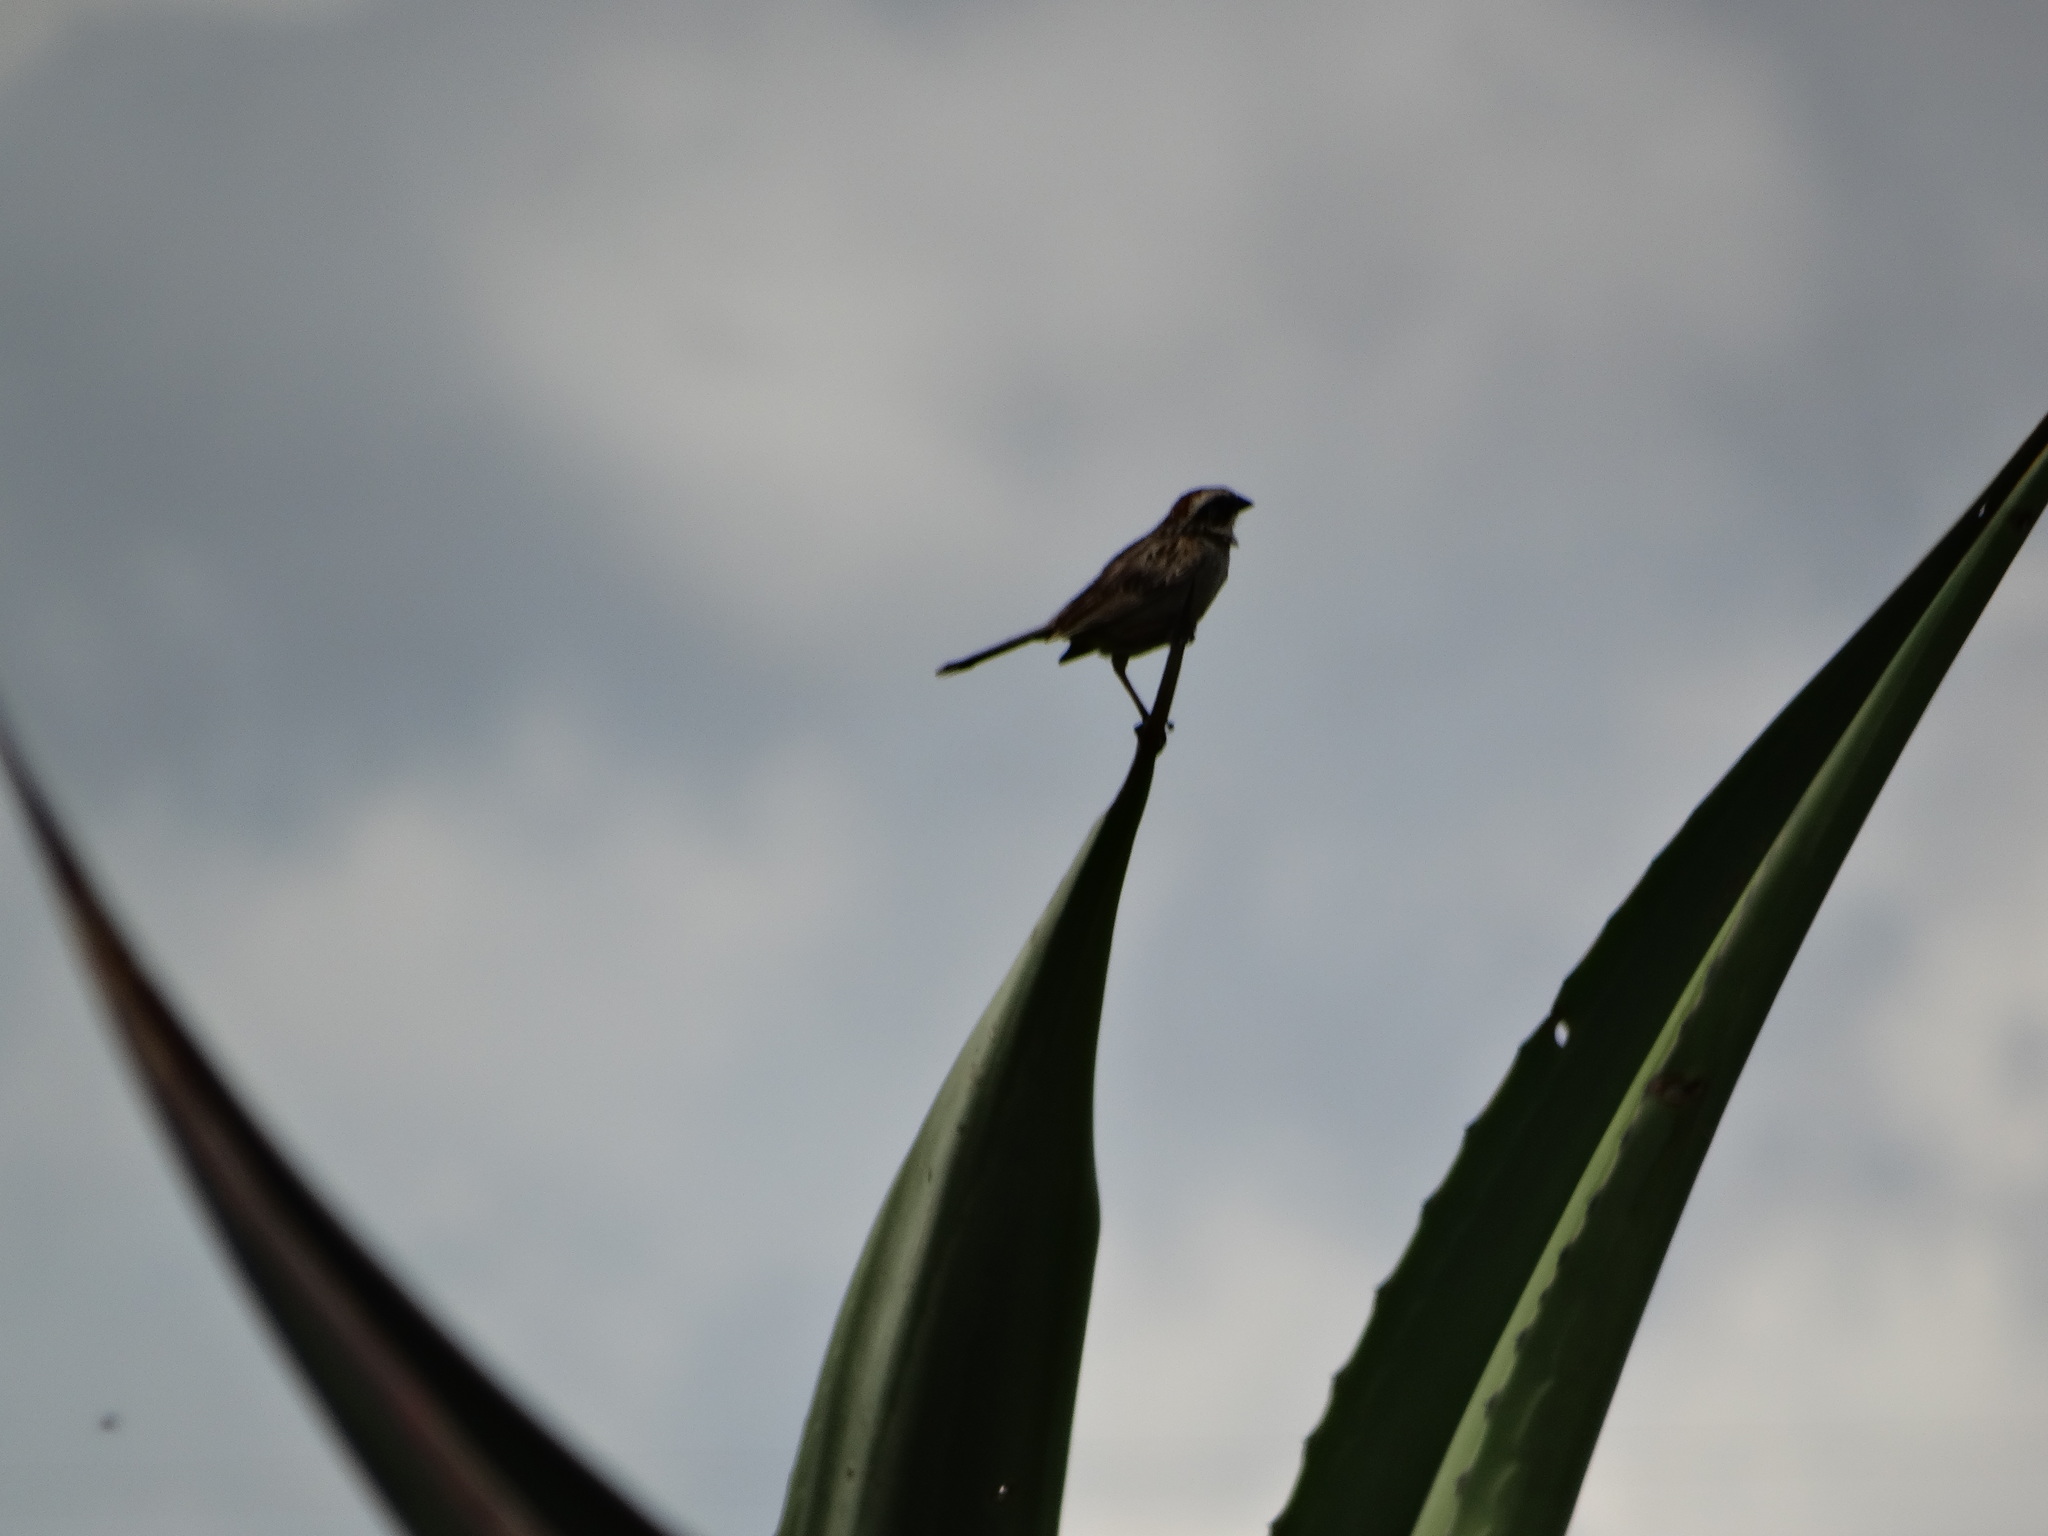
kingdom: Animalia
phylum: Chordata
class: Aves
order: Passeriformes
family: Passerellidae
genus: Oriturus
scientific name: Oriturus superciliosus
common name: Striped sparrow
